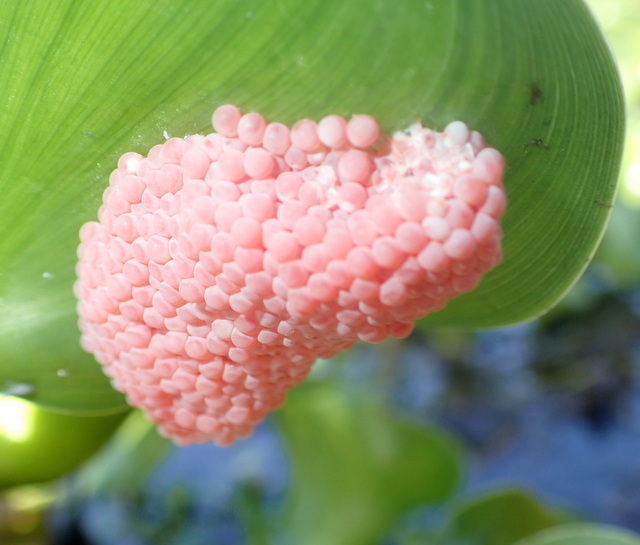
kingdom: Animalia
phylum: Mollusca
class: Gastropoda
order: Architaenioglossa
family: Ampullariidae
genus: Pomacea
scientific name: Pomacea maculata
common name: Giant applesnail
